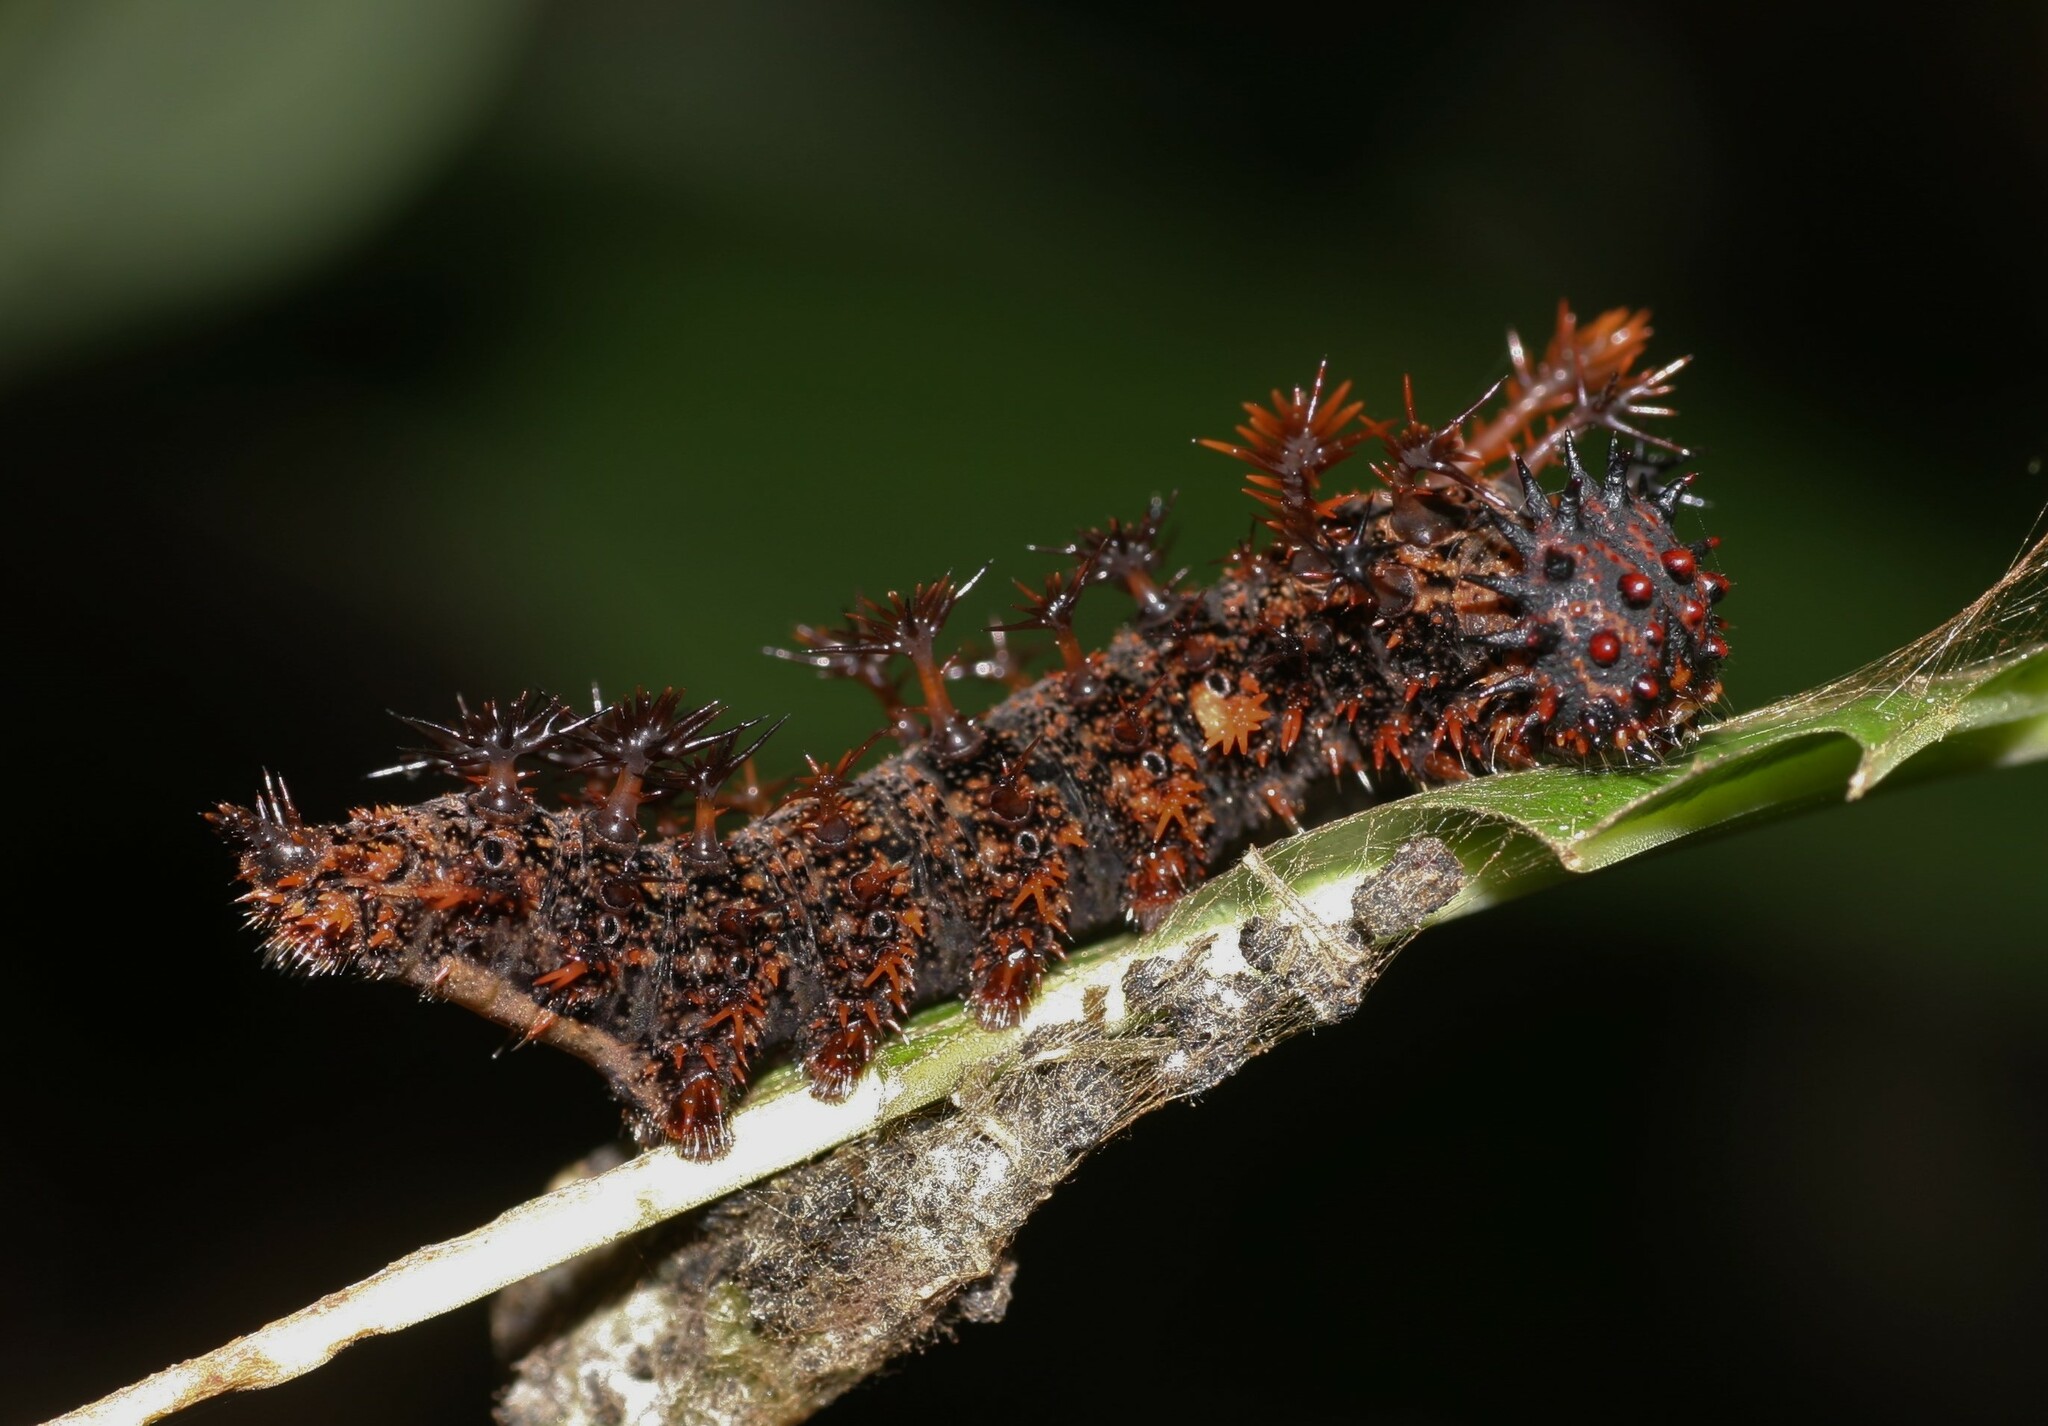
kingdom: Animalia
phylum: Arthropoda
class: Insecta
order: Lepidoptera
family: Nymphalidae
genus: Limenitis
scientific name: Limenitis Moduza procris
